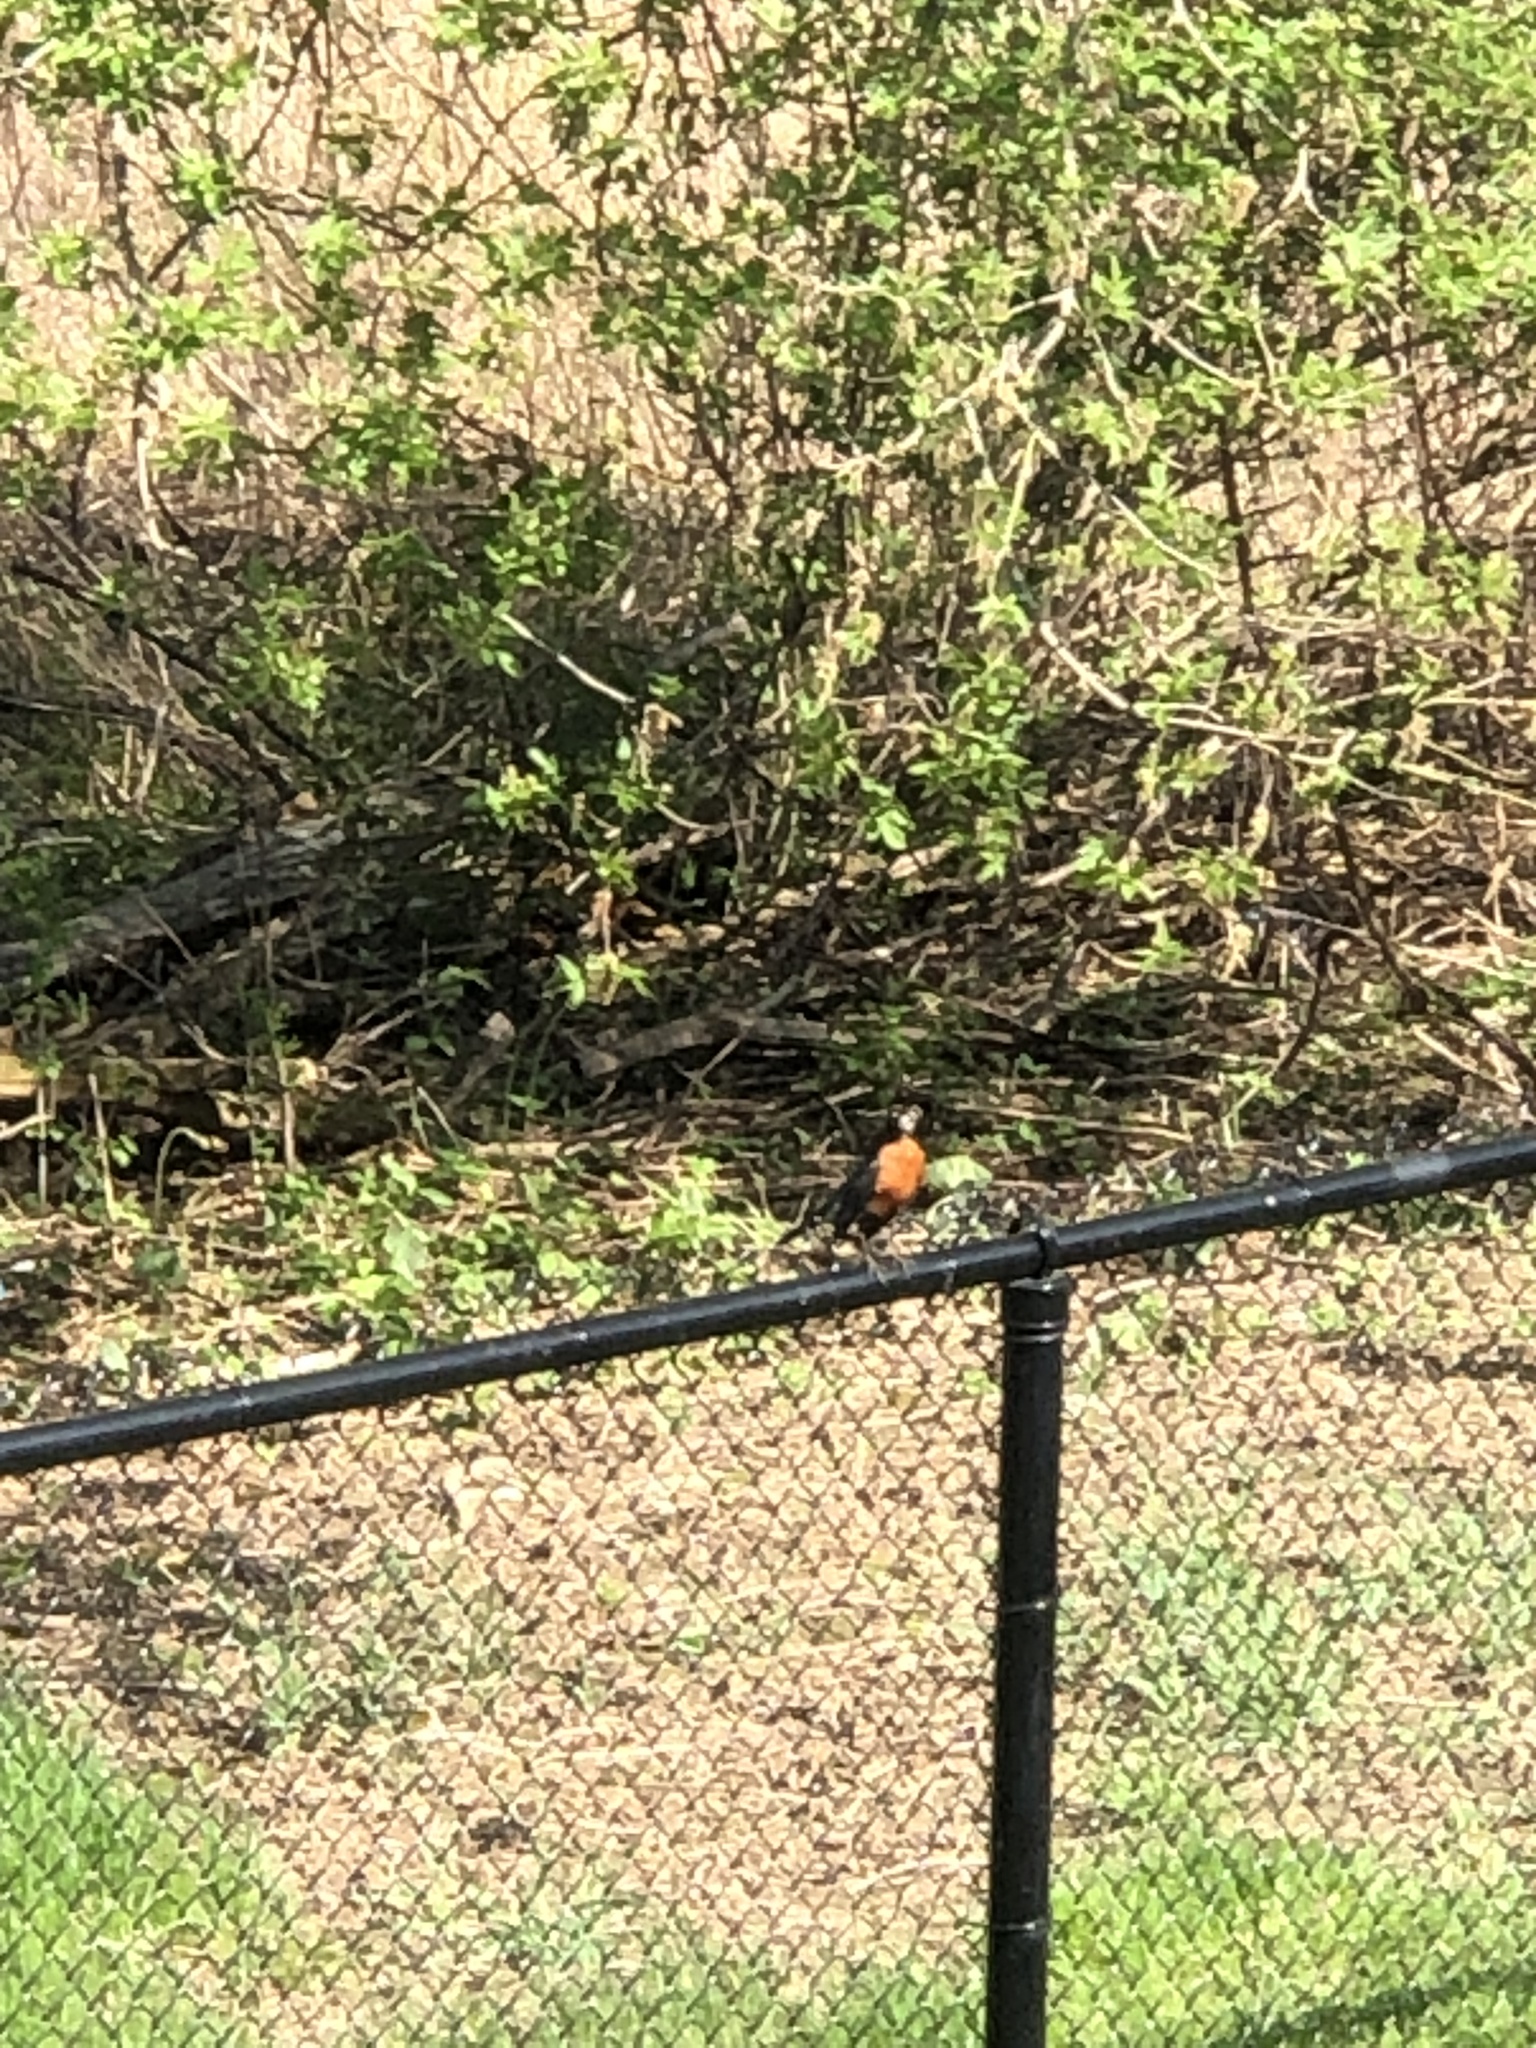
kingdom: Animalia
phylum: Chordata
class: Aves
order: Passeriformes
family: Turdidae
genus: Turdus
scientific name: Turdus migratorius
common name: American robin
